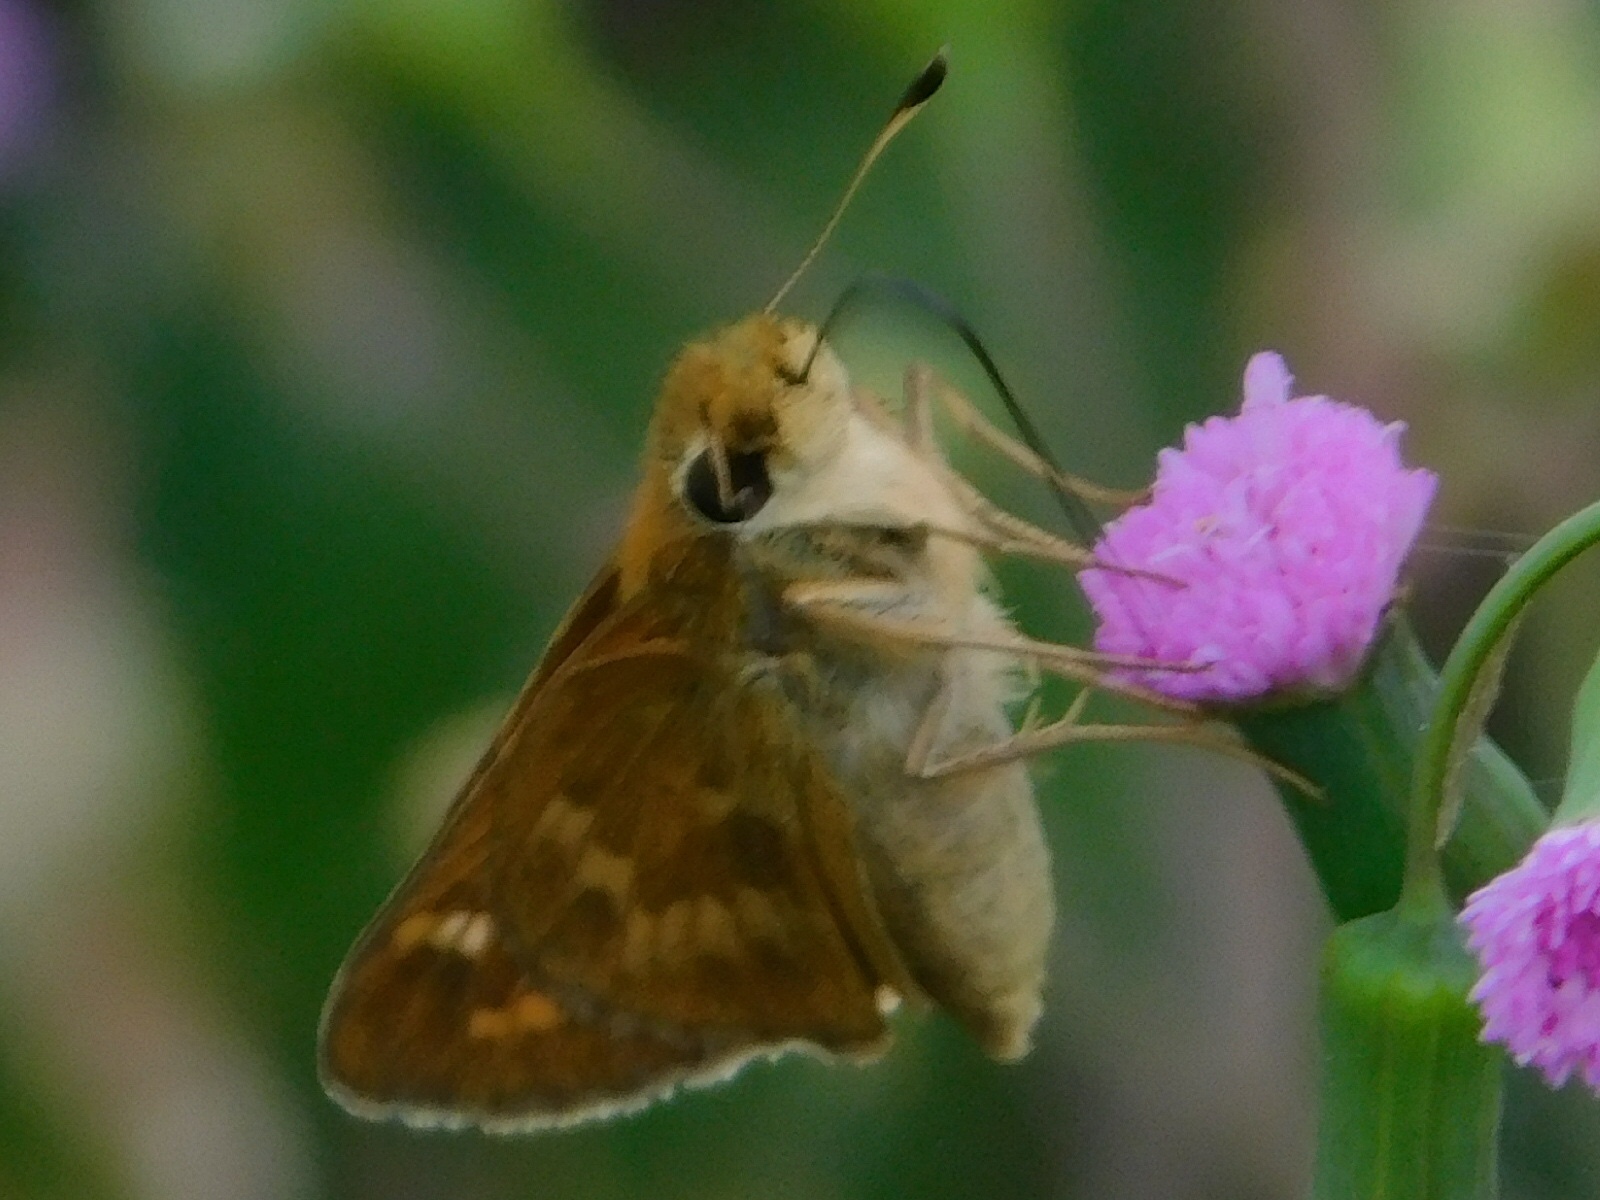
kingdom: Animalia
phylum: Arthropoda
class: Insecta
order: Lepidoptera
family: Hesperiidae
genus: Atalopedes
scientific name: Atalopedes
